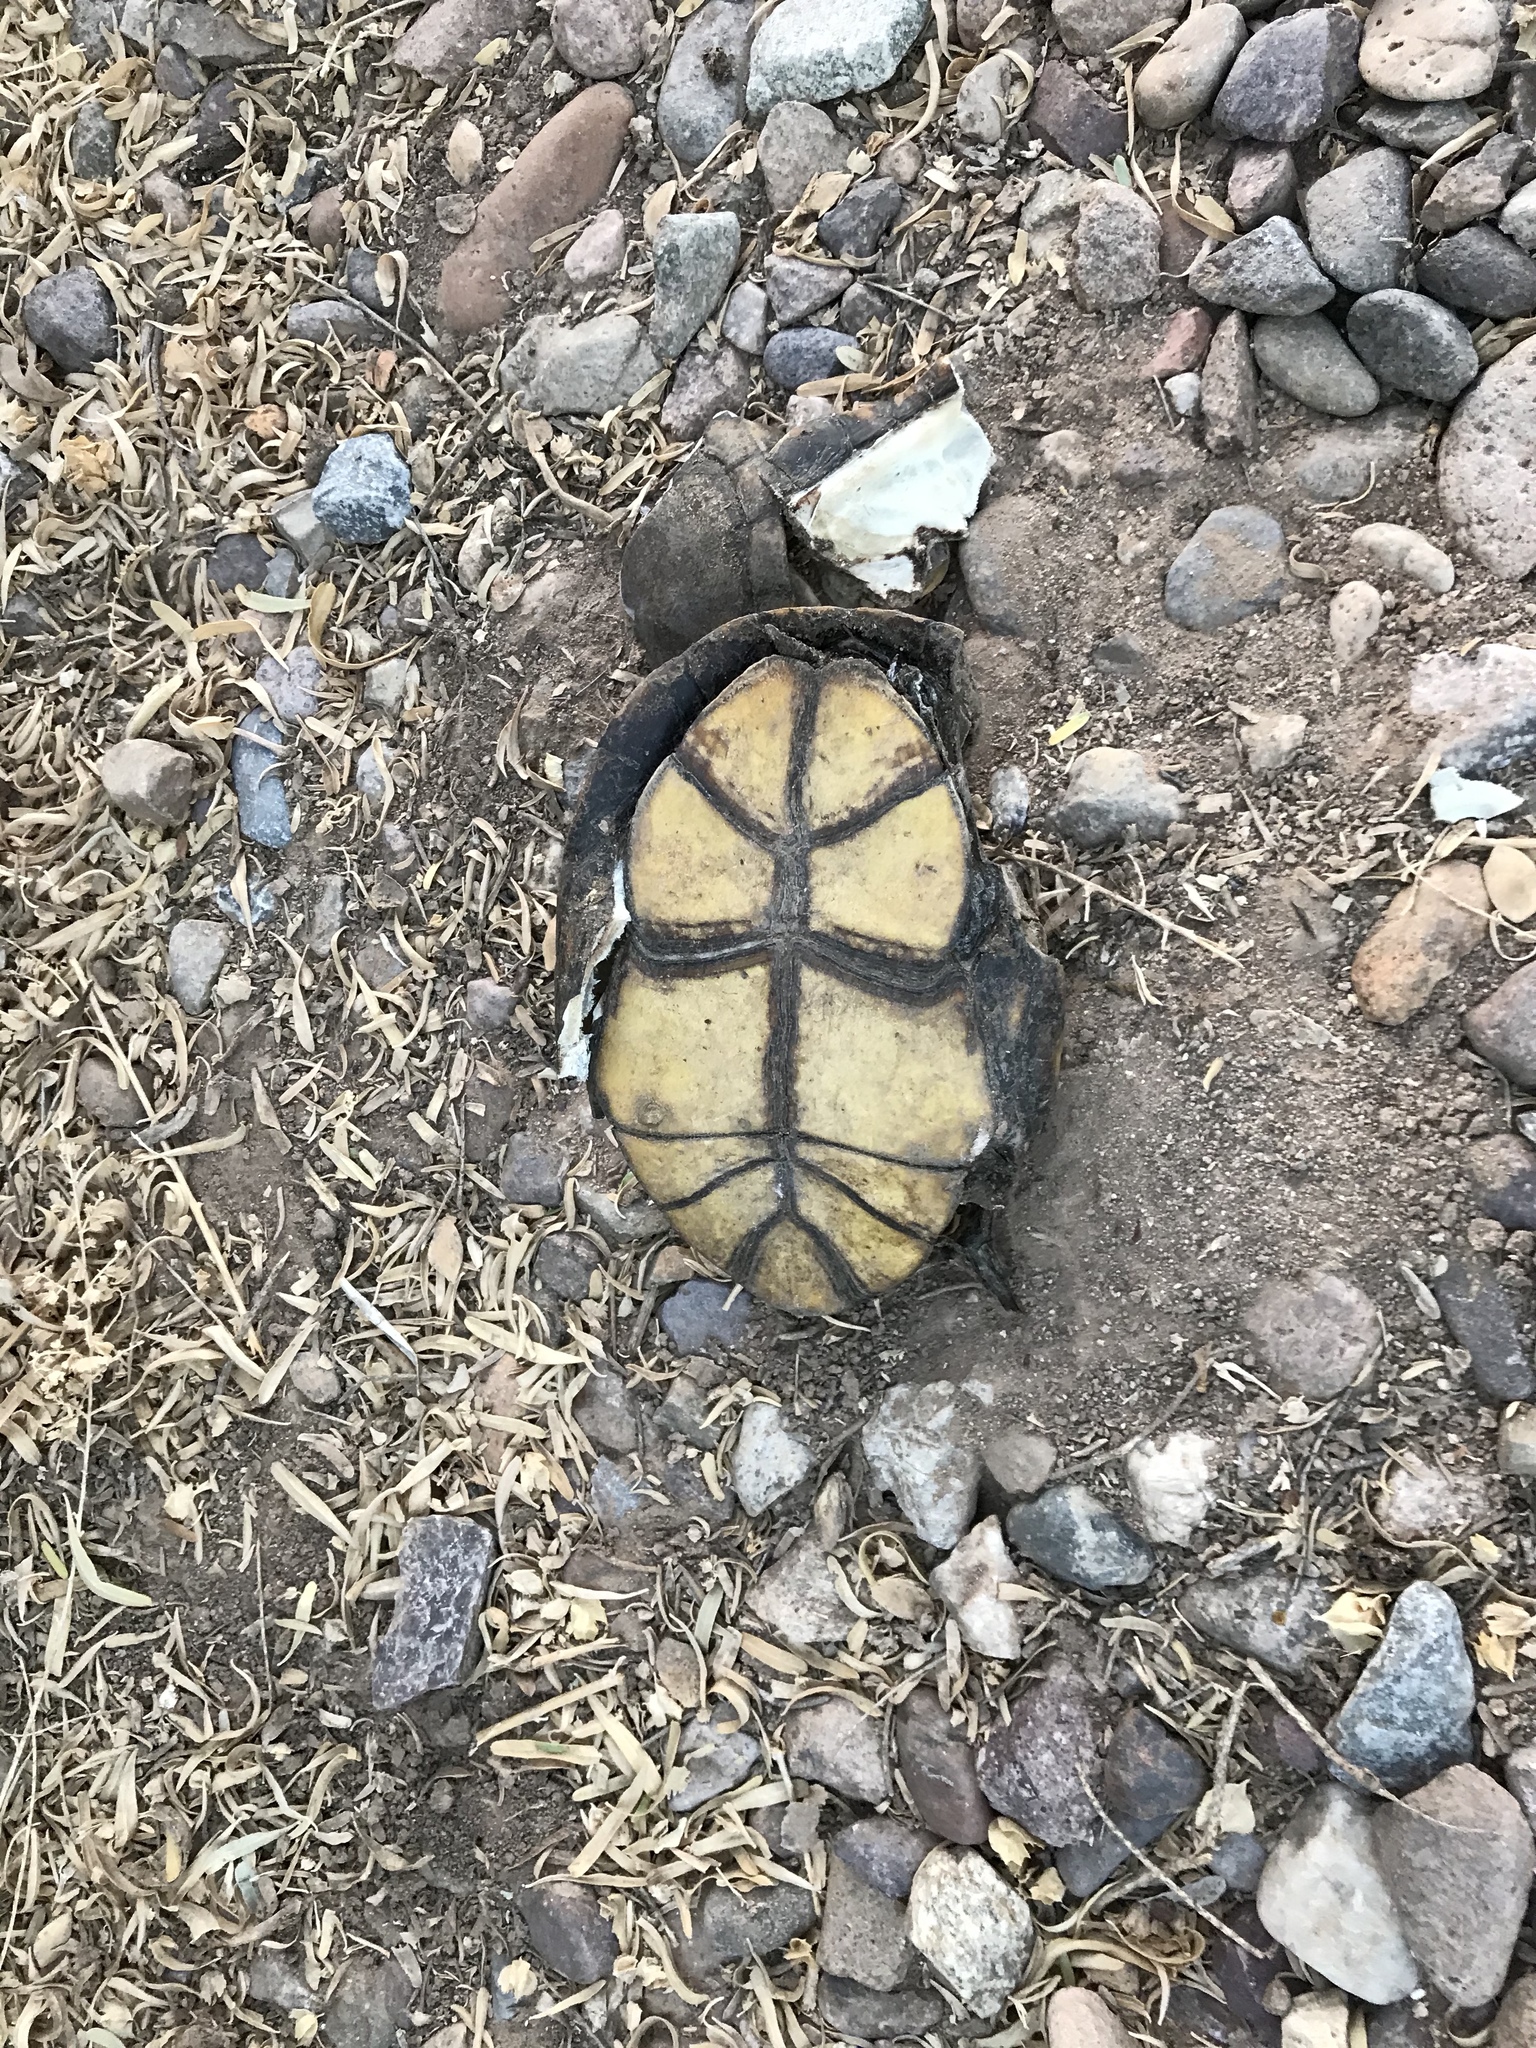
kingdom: Animalia
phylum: Chordata
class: Testudines
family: Kinosternidae
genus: Kinosternon
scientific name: Kinosternon sonoriense
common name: Sonora mud turtle
